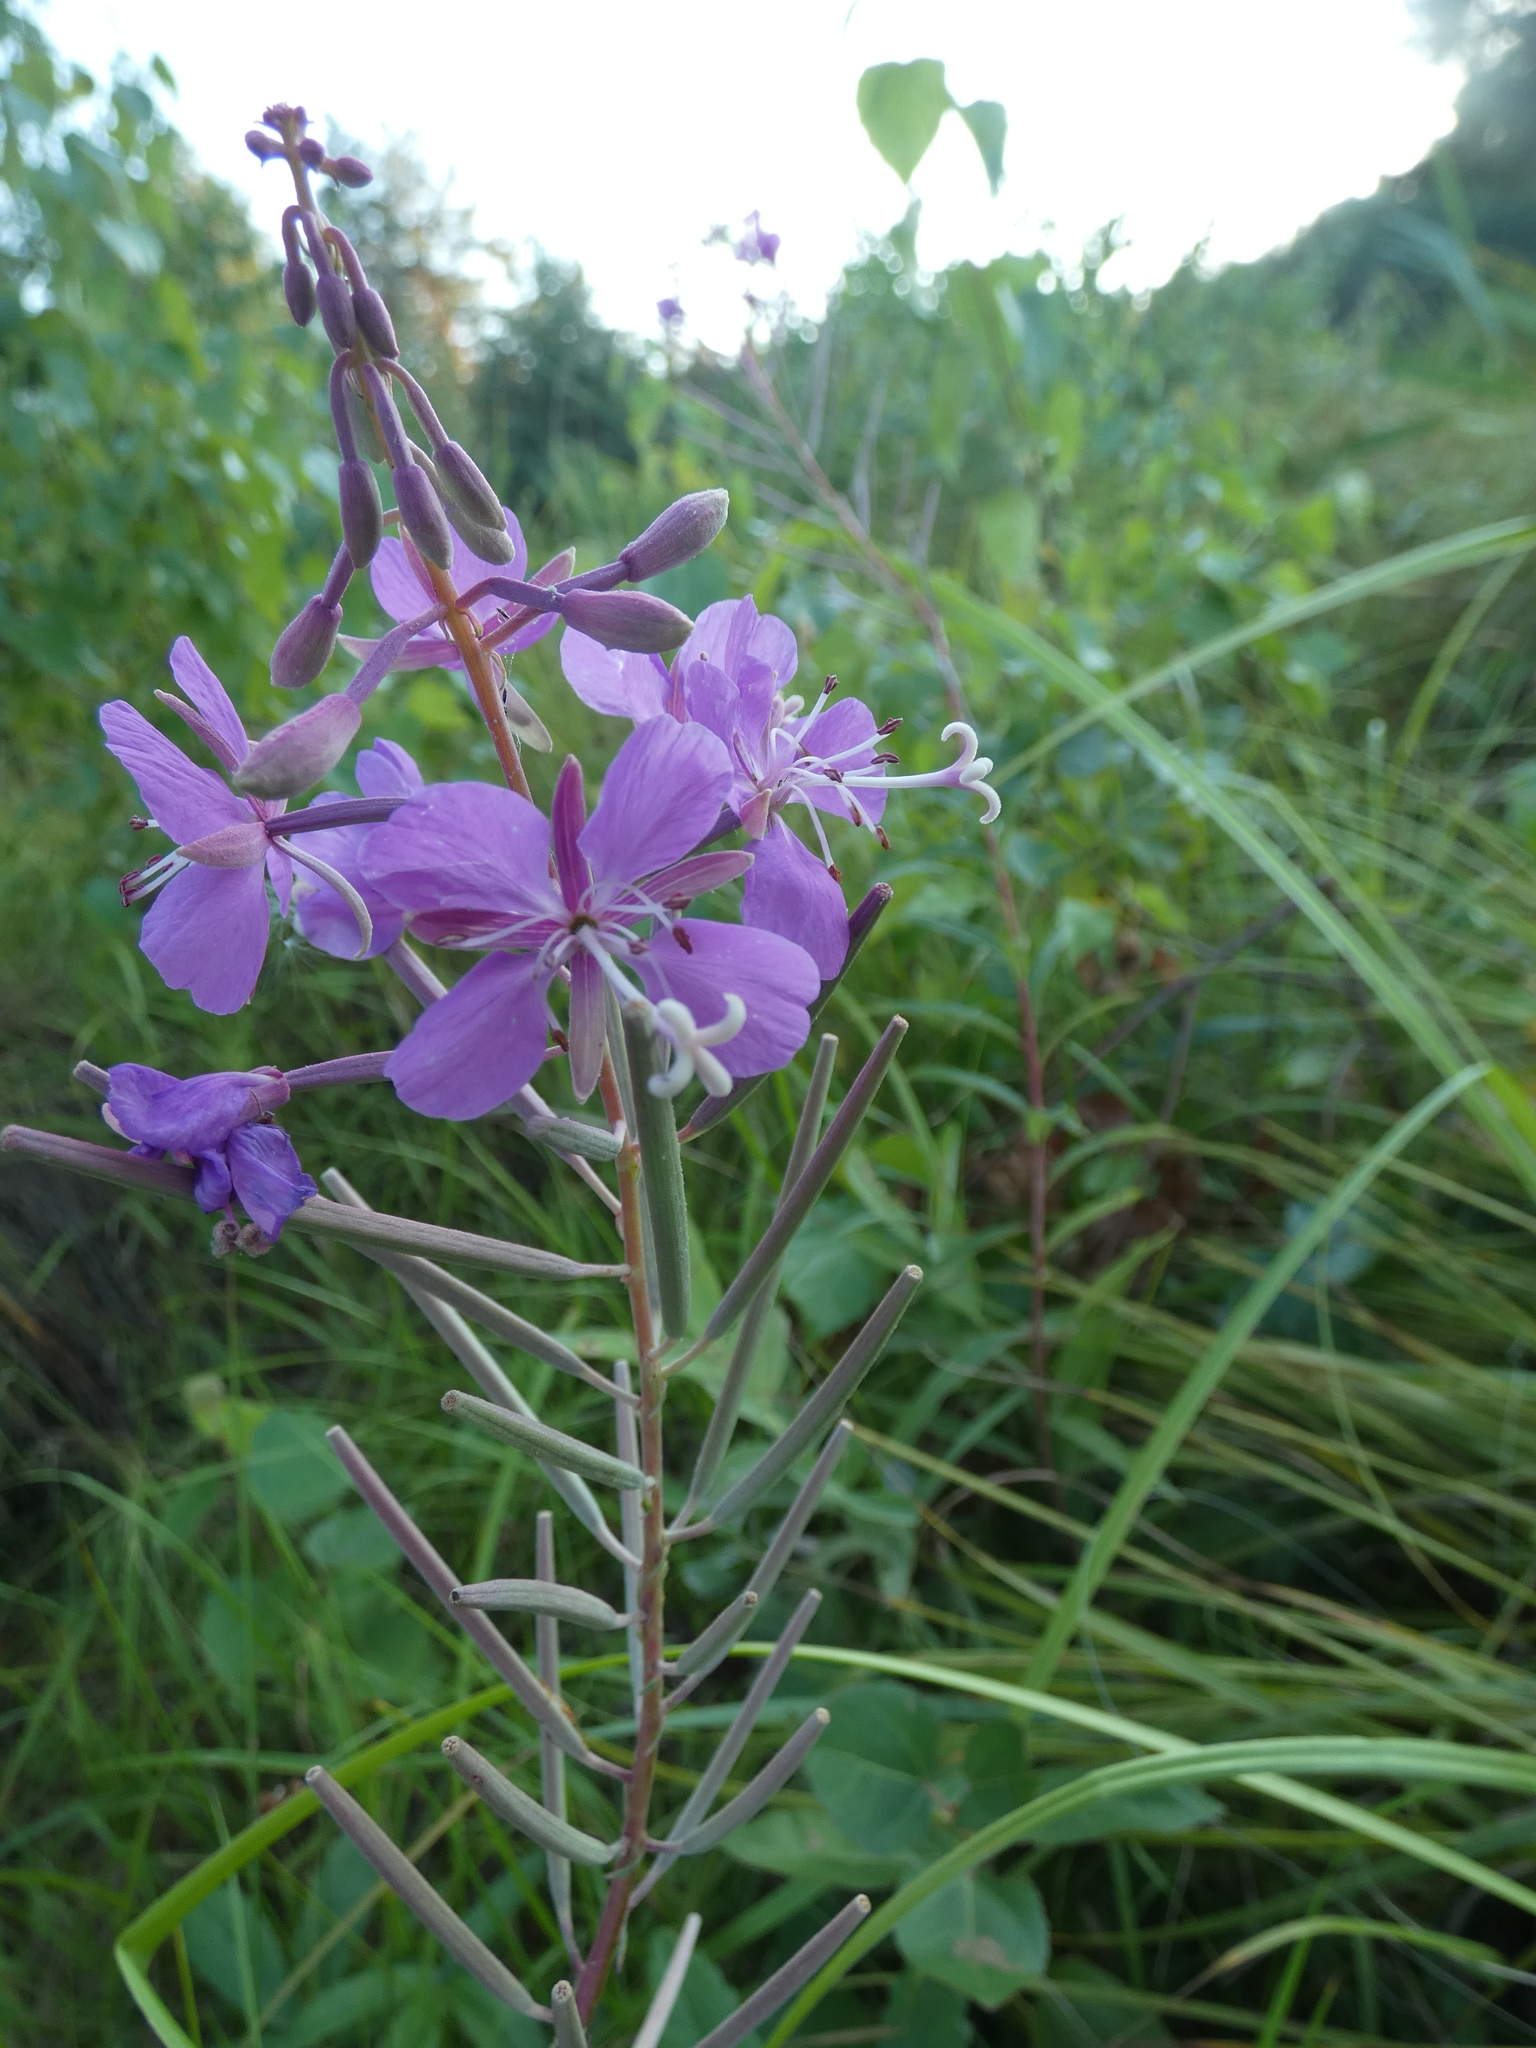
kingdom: Plantae
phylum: Tracheophyta
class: Magnoliopsida
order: Myrtales
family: Onagraceae
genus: Chamaenerion
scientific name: Chamaenerion angustifolium
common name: Fireweed
